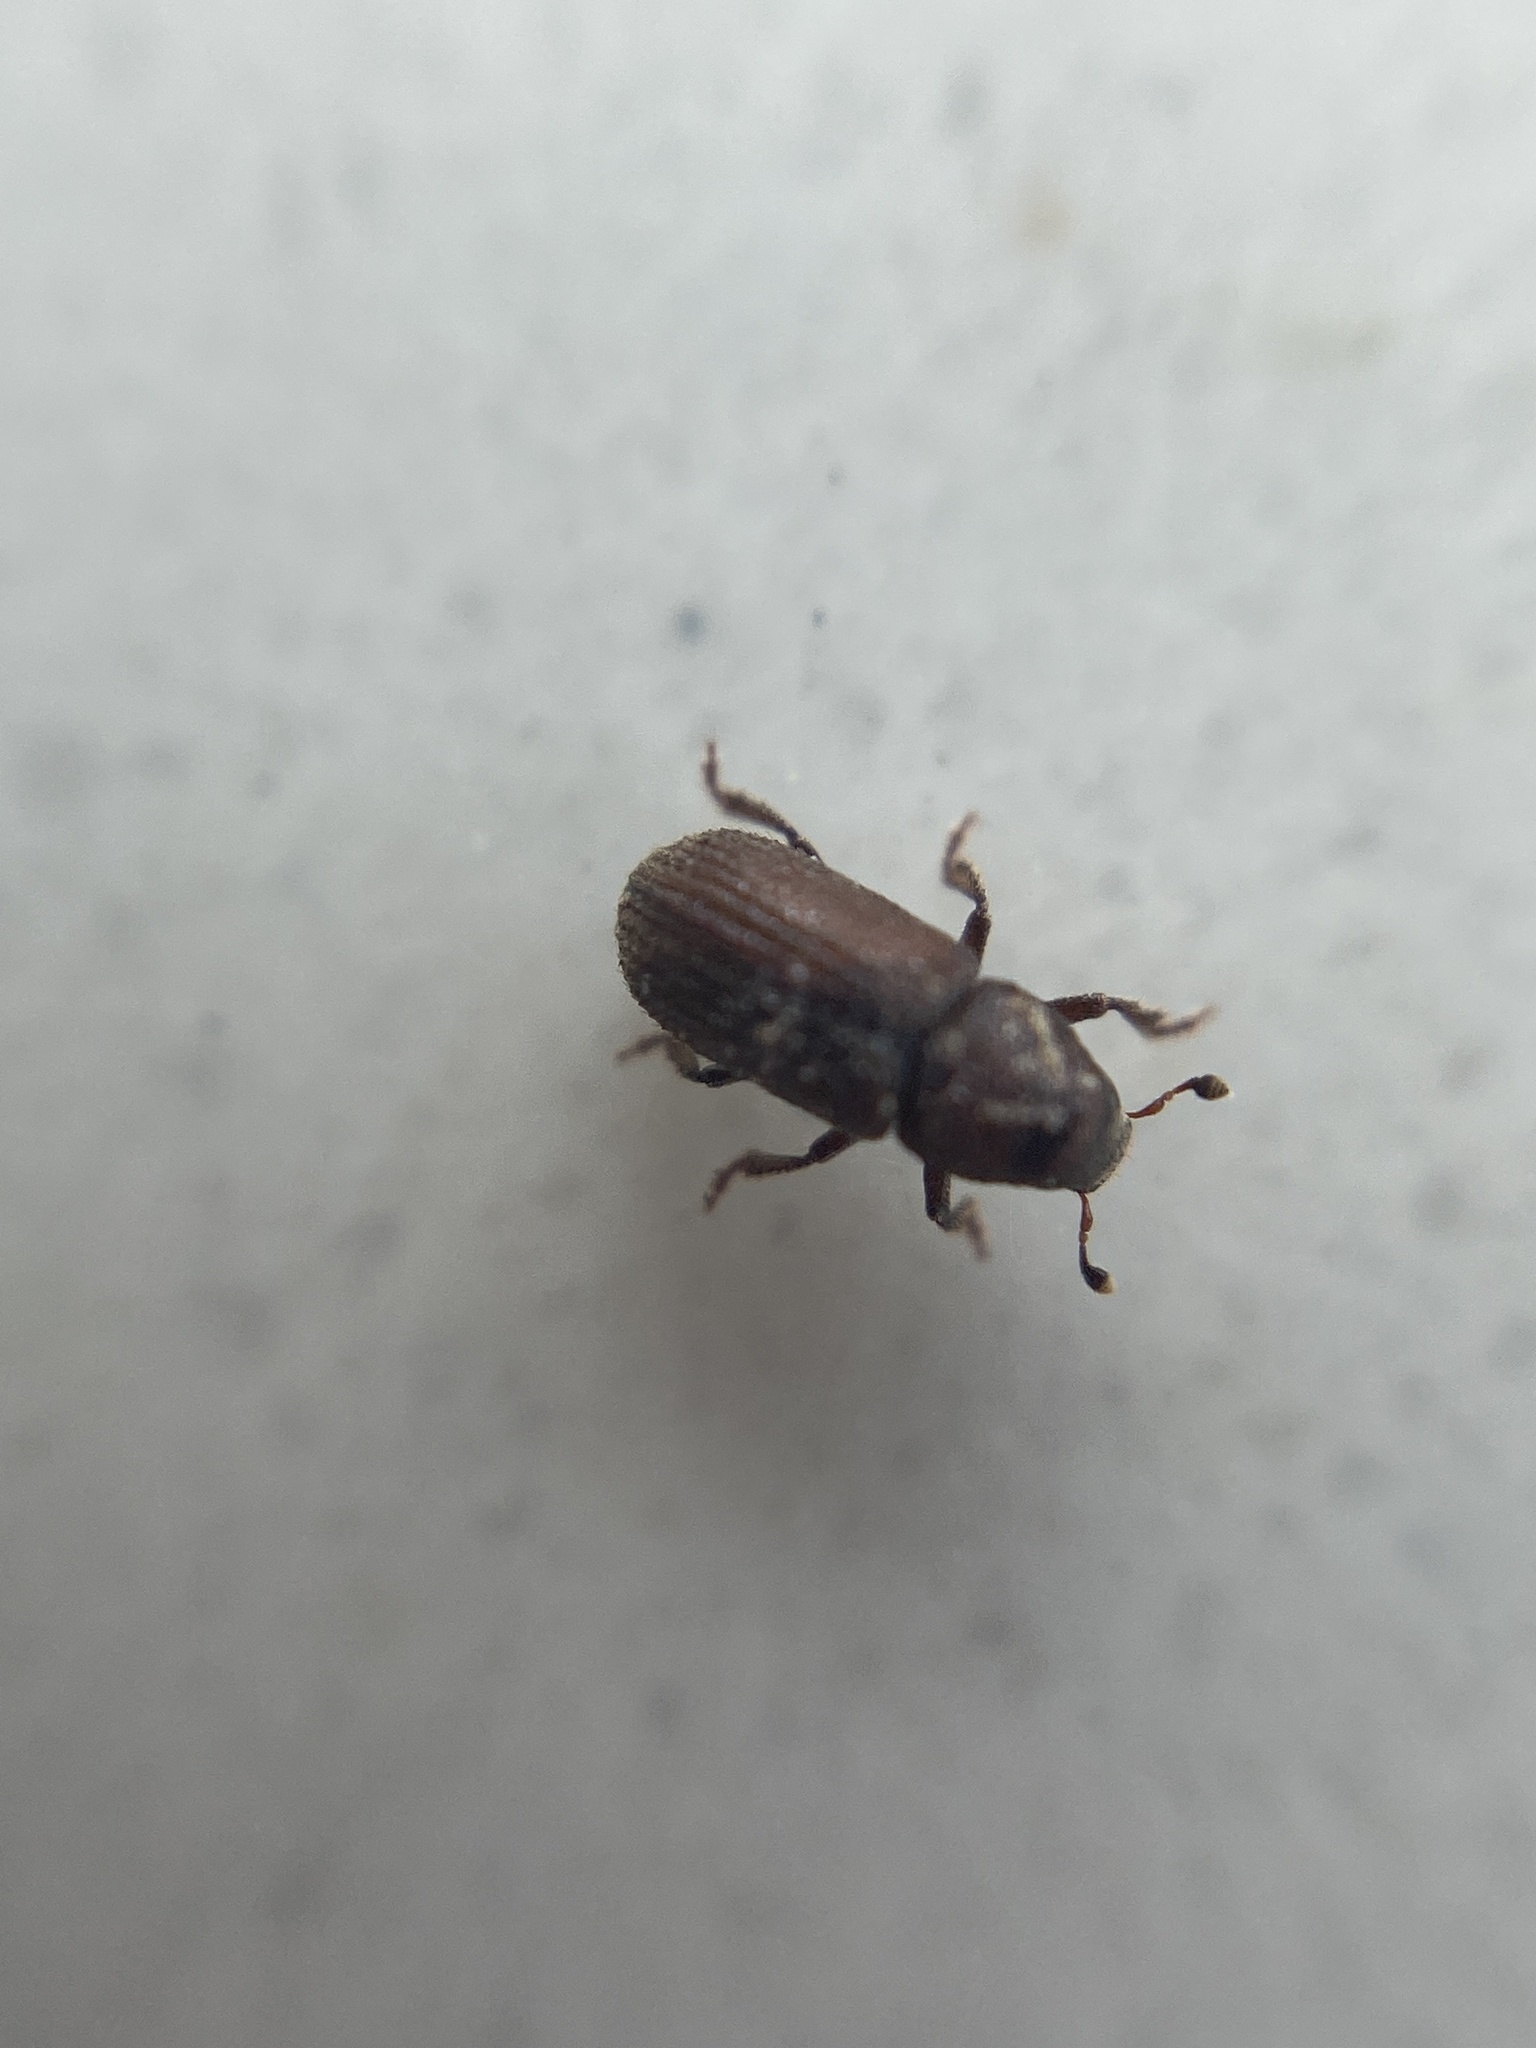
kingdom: Animalia
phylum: Arthropoda
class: Insecta
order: Coleoptera
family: Curculionidae
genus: Hylurgops
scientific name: Hylurgops palliatus
